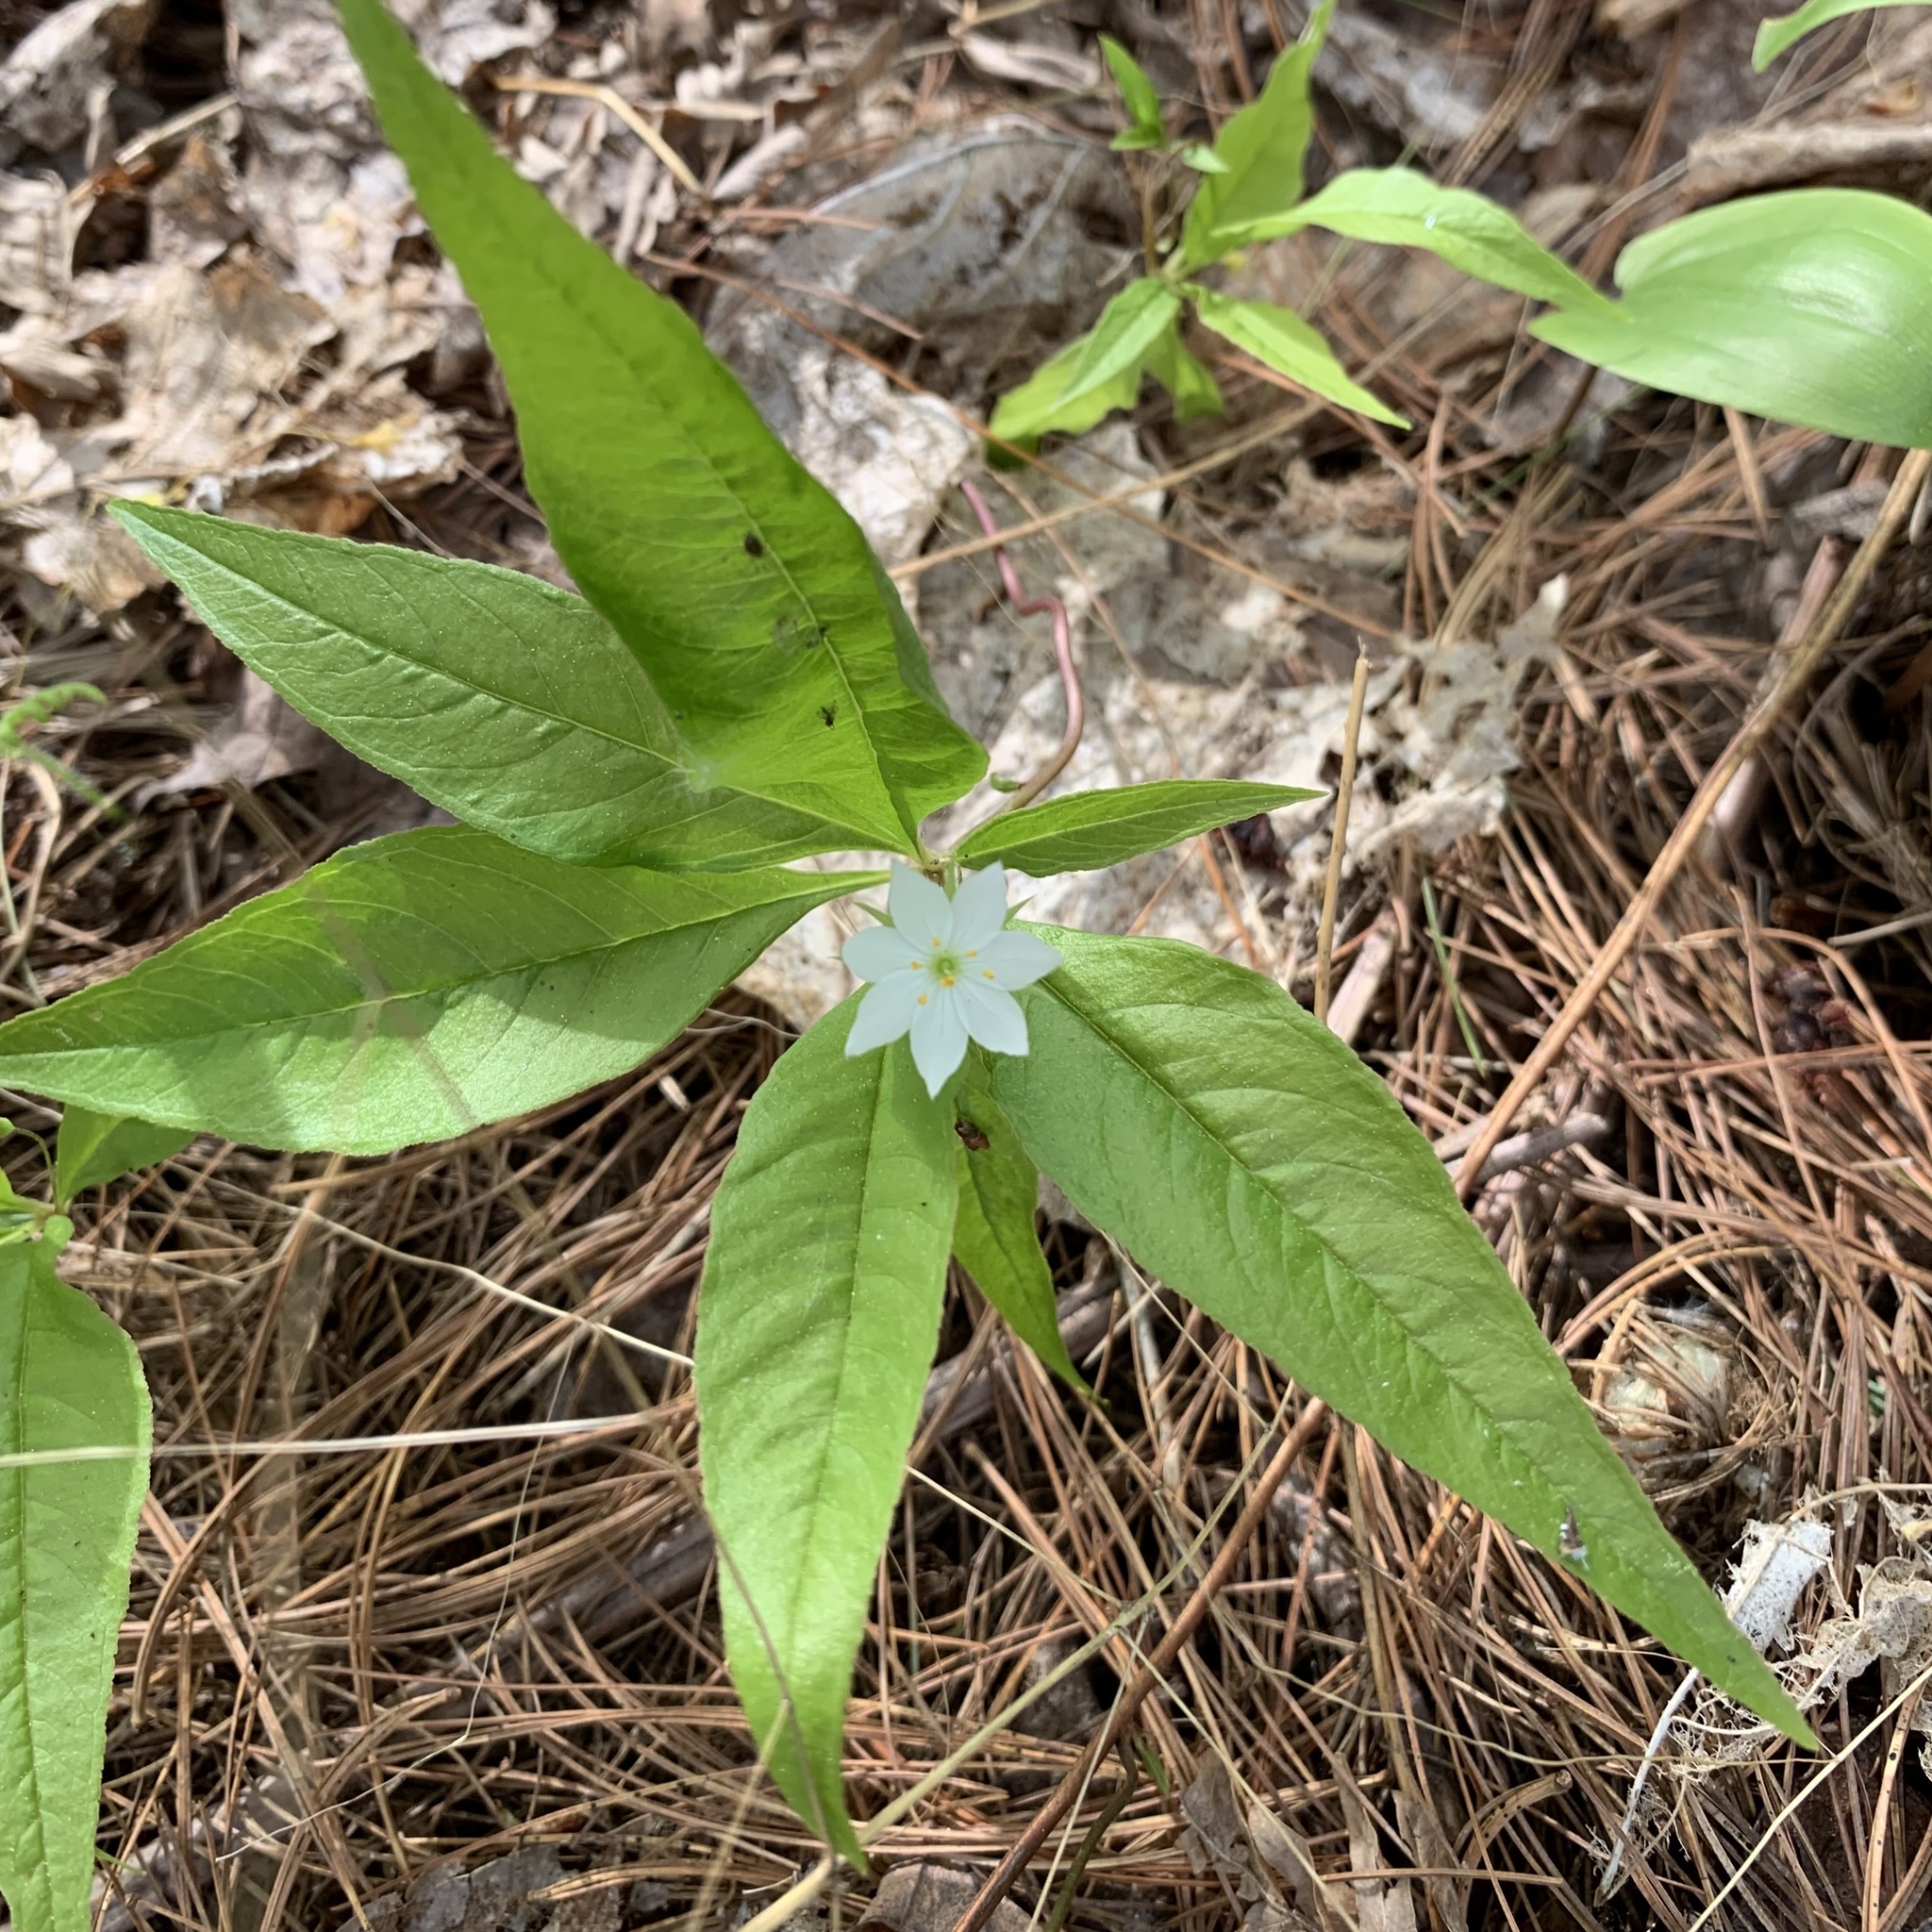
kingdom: Plantae
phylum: Tracheophyta
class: Magnoliopsida
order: Ericales
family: Primulaceae
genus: Lysimachia
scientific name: Lysimachia borealis
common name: American starflower
